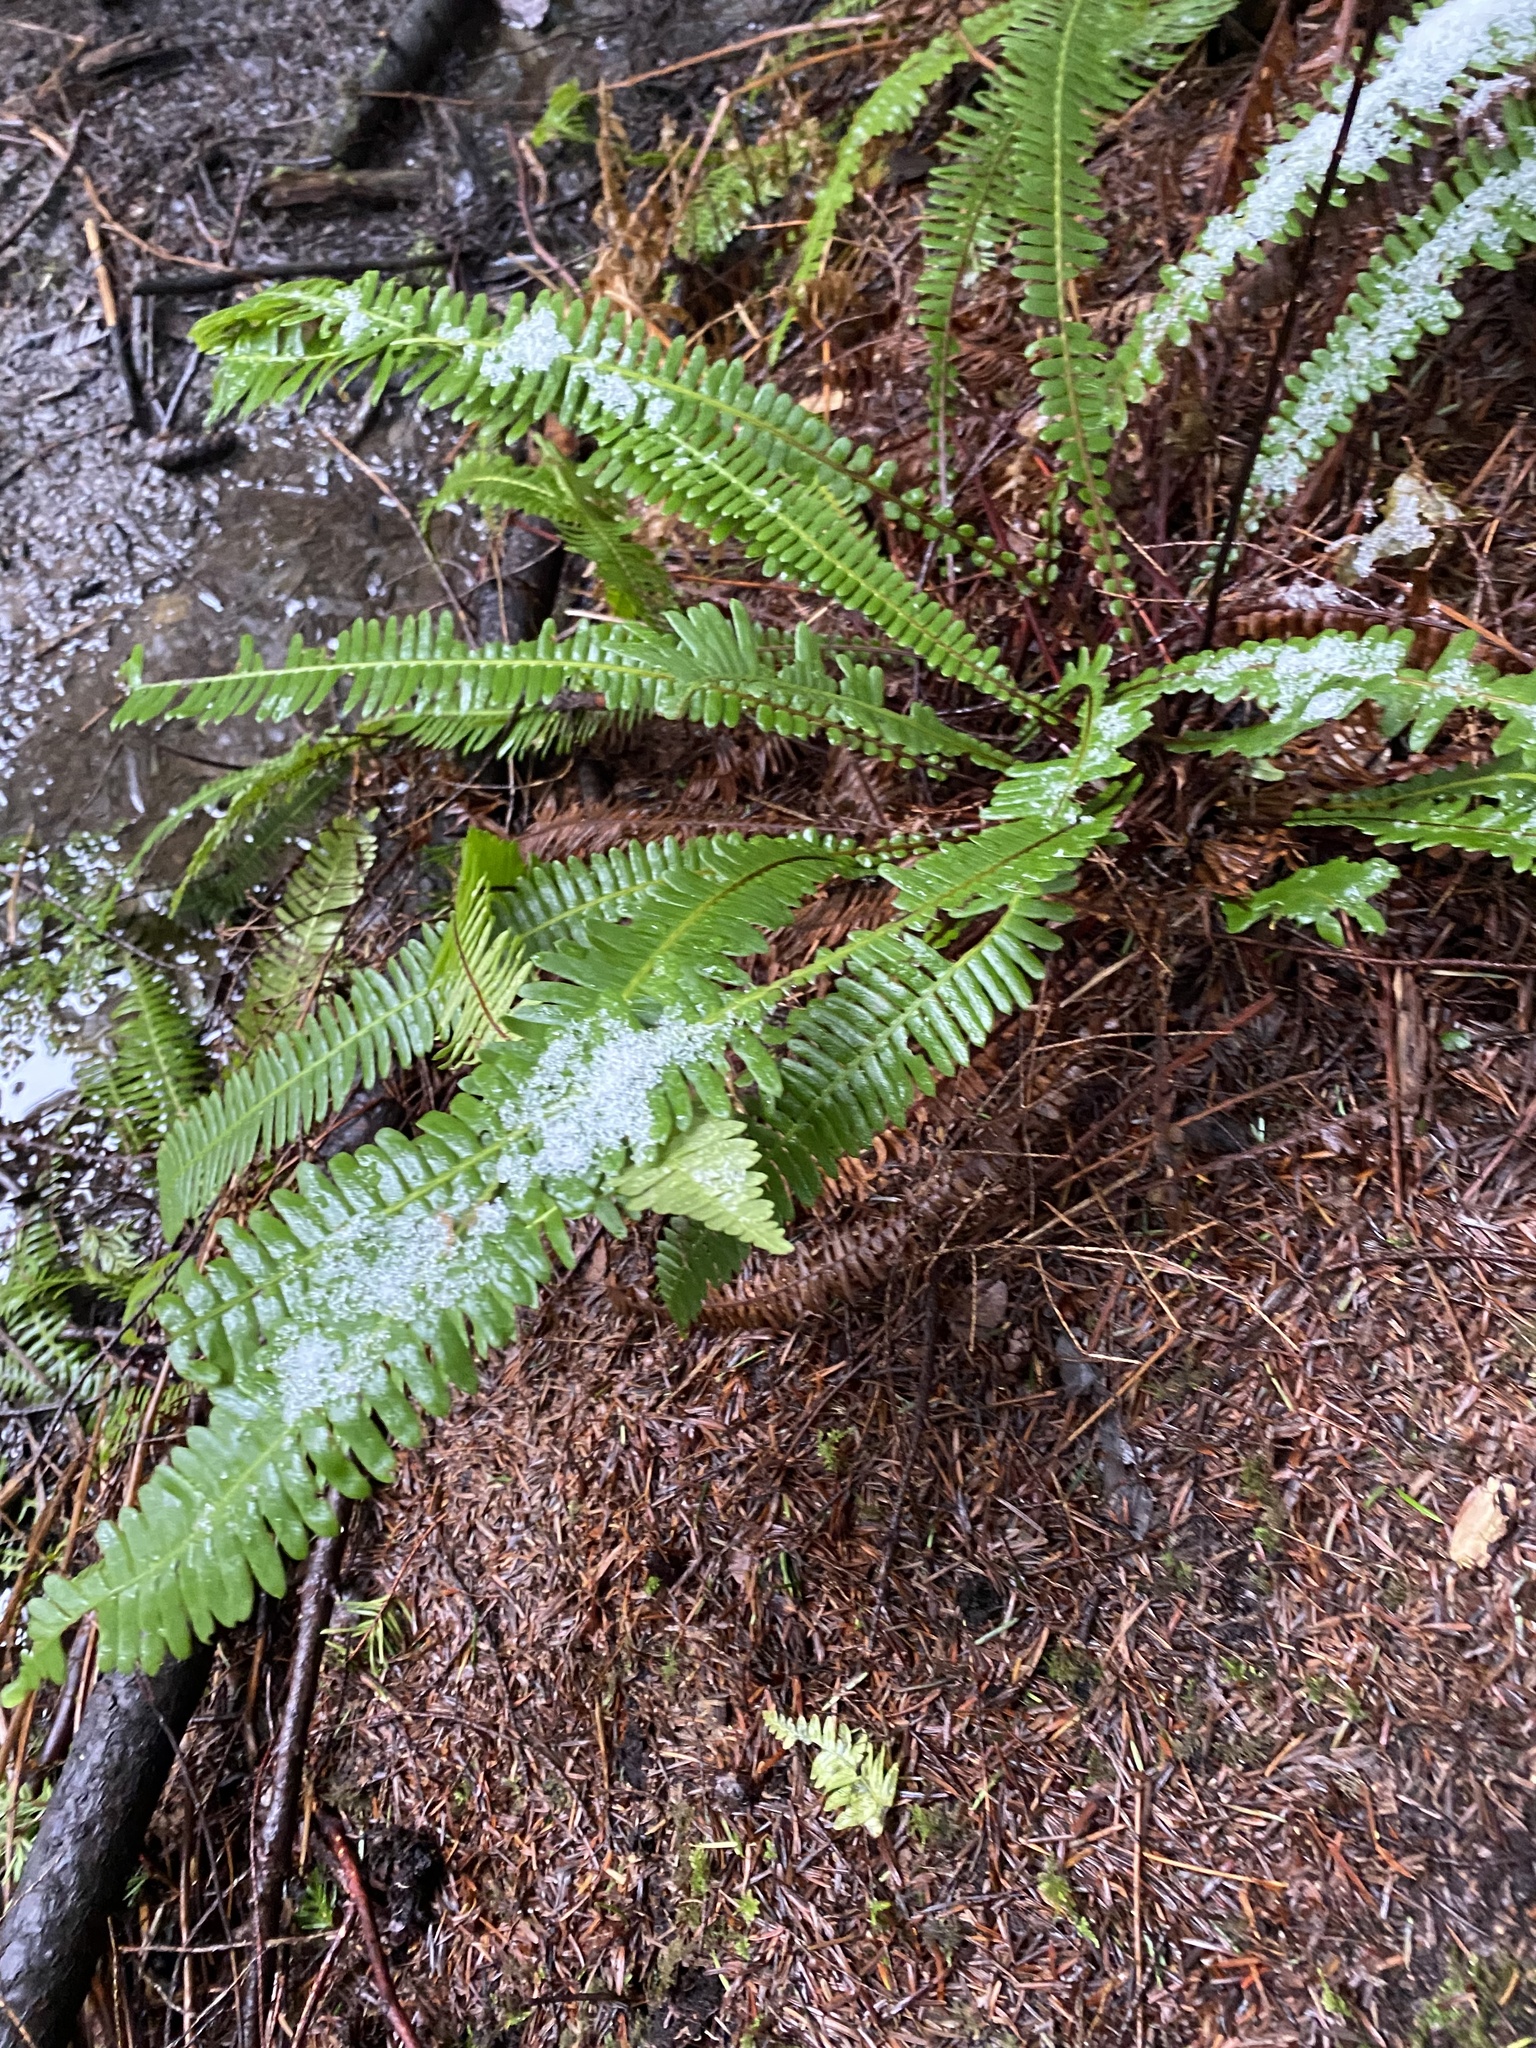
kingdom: Plantae
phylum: Tracheophyta
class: Polypodiopsida
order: Polypodiales
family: Blechnaceae
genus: Struthiopteris
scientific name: Struthiopteris spicant
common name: Deer fern
